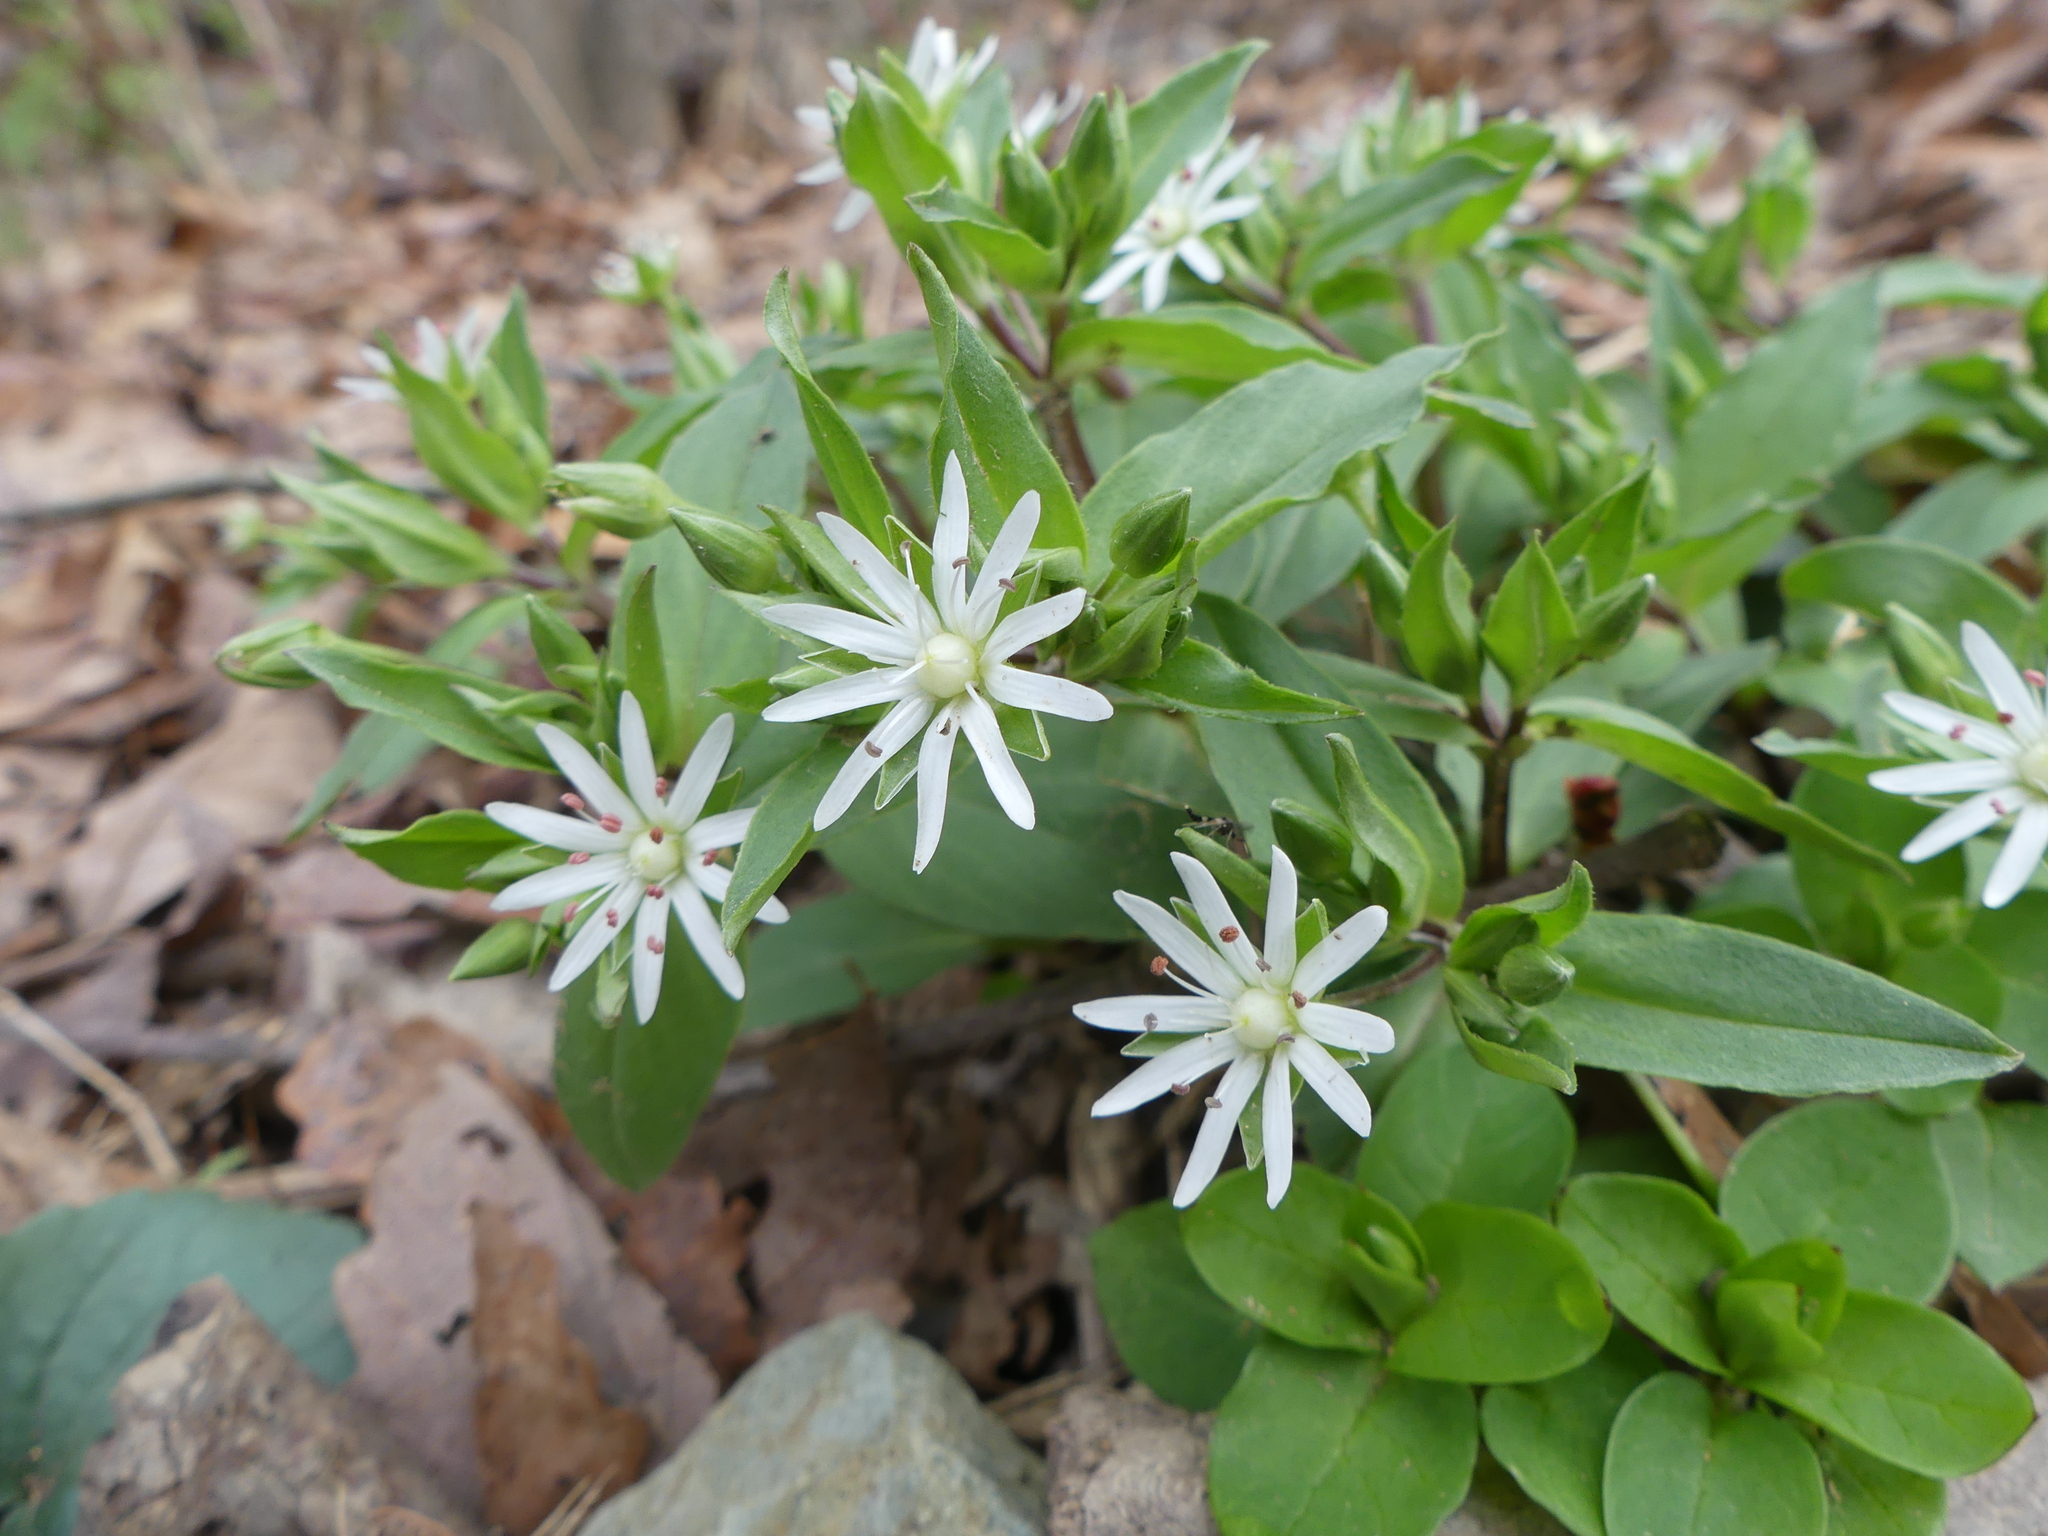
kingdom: Plantae
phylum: Tracheophyta
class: Magnoliopsida
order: Caryophyllales
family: Caryophyllaceae
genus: Stellaria
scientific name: Stellaria pubera
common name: Star chickweed
